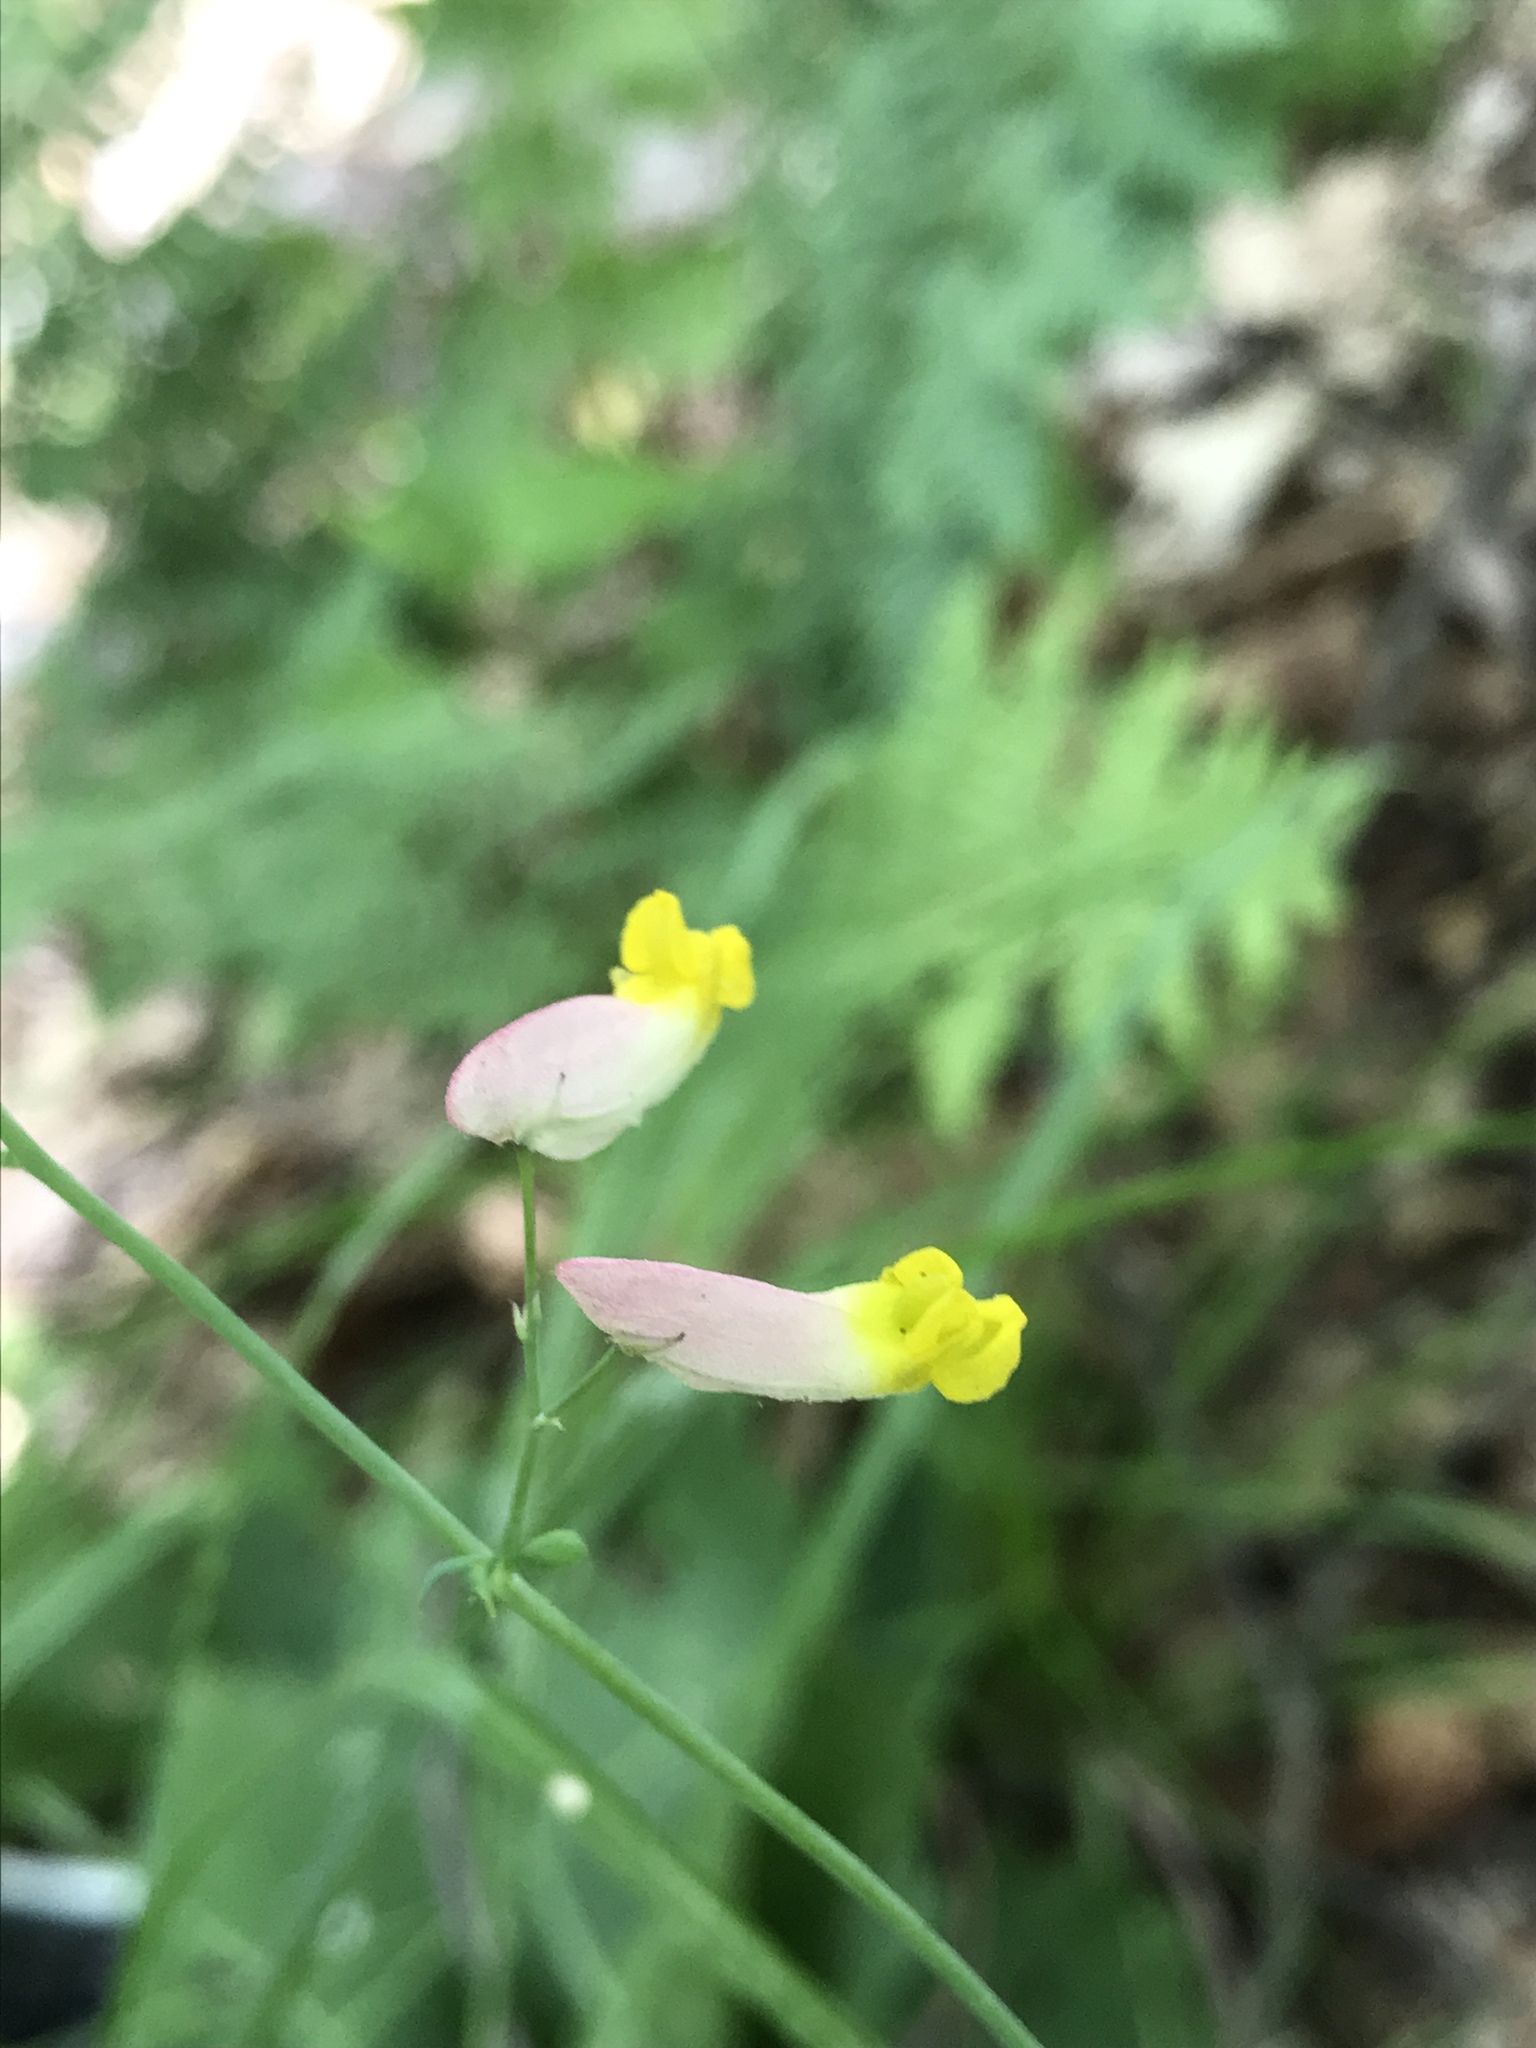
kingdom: Plantae
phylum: Tracheophyta
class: Magnoliopsida
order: Ranunculales
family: Papaveraceae
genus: Capnoides
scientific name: Capnoides sempervirens
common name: Rock harlequin
